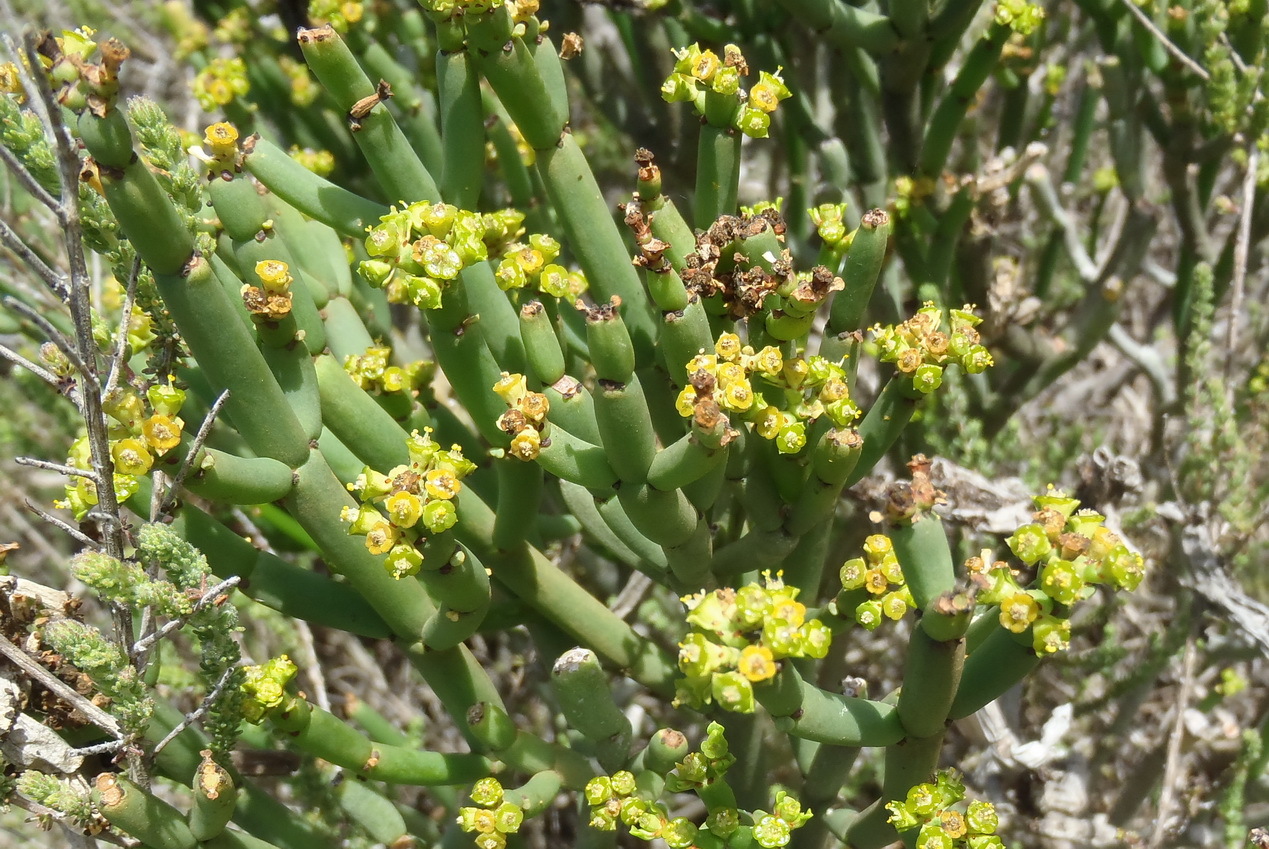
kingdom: Plantae
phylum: Tracheophyta
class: Magnoliopsida
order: Malpighiales
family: Euphorbiaceae
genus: Euphorbia
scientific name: Euphorbia burmanni
